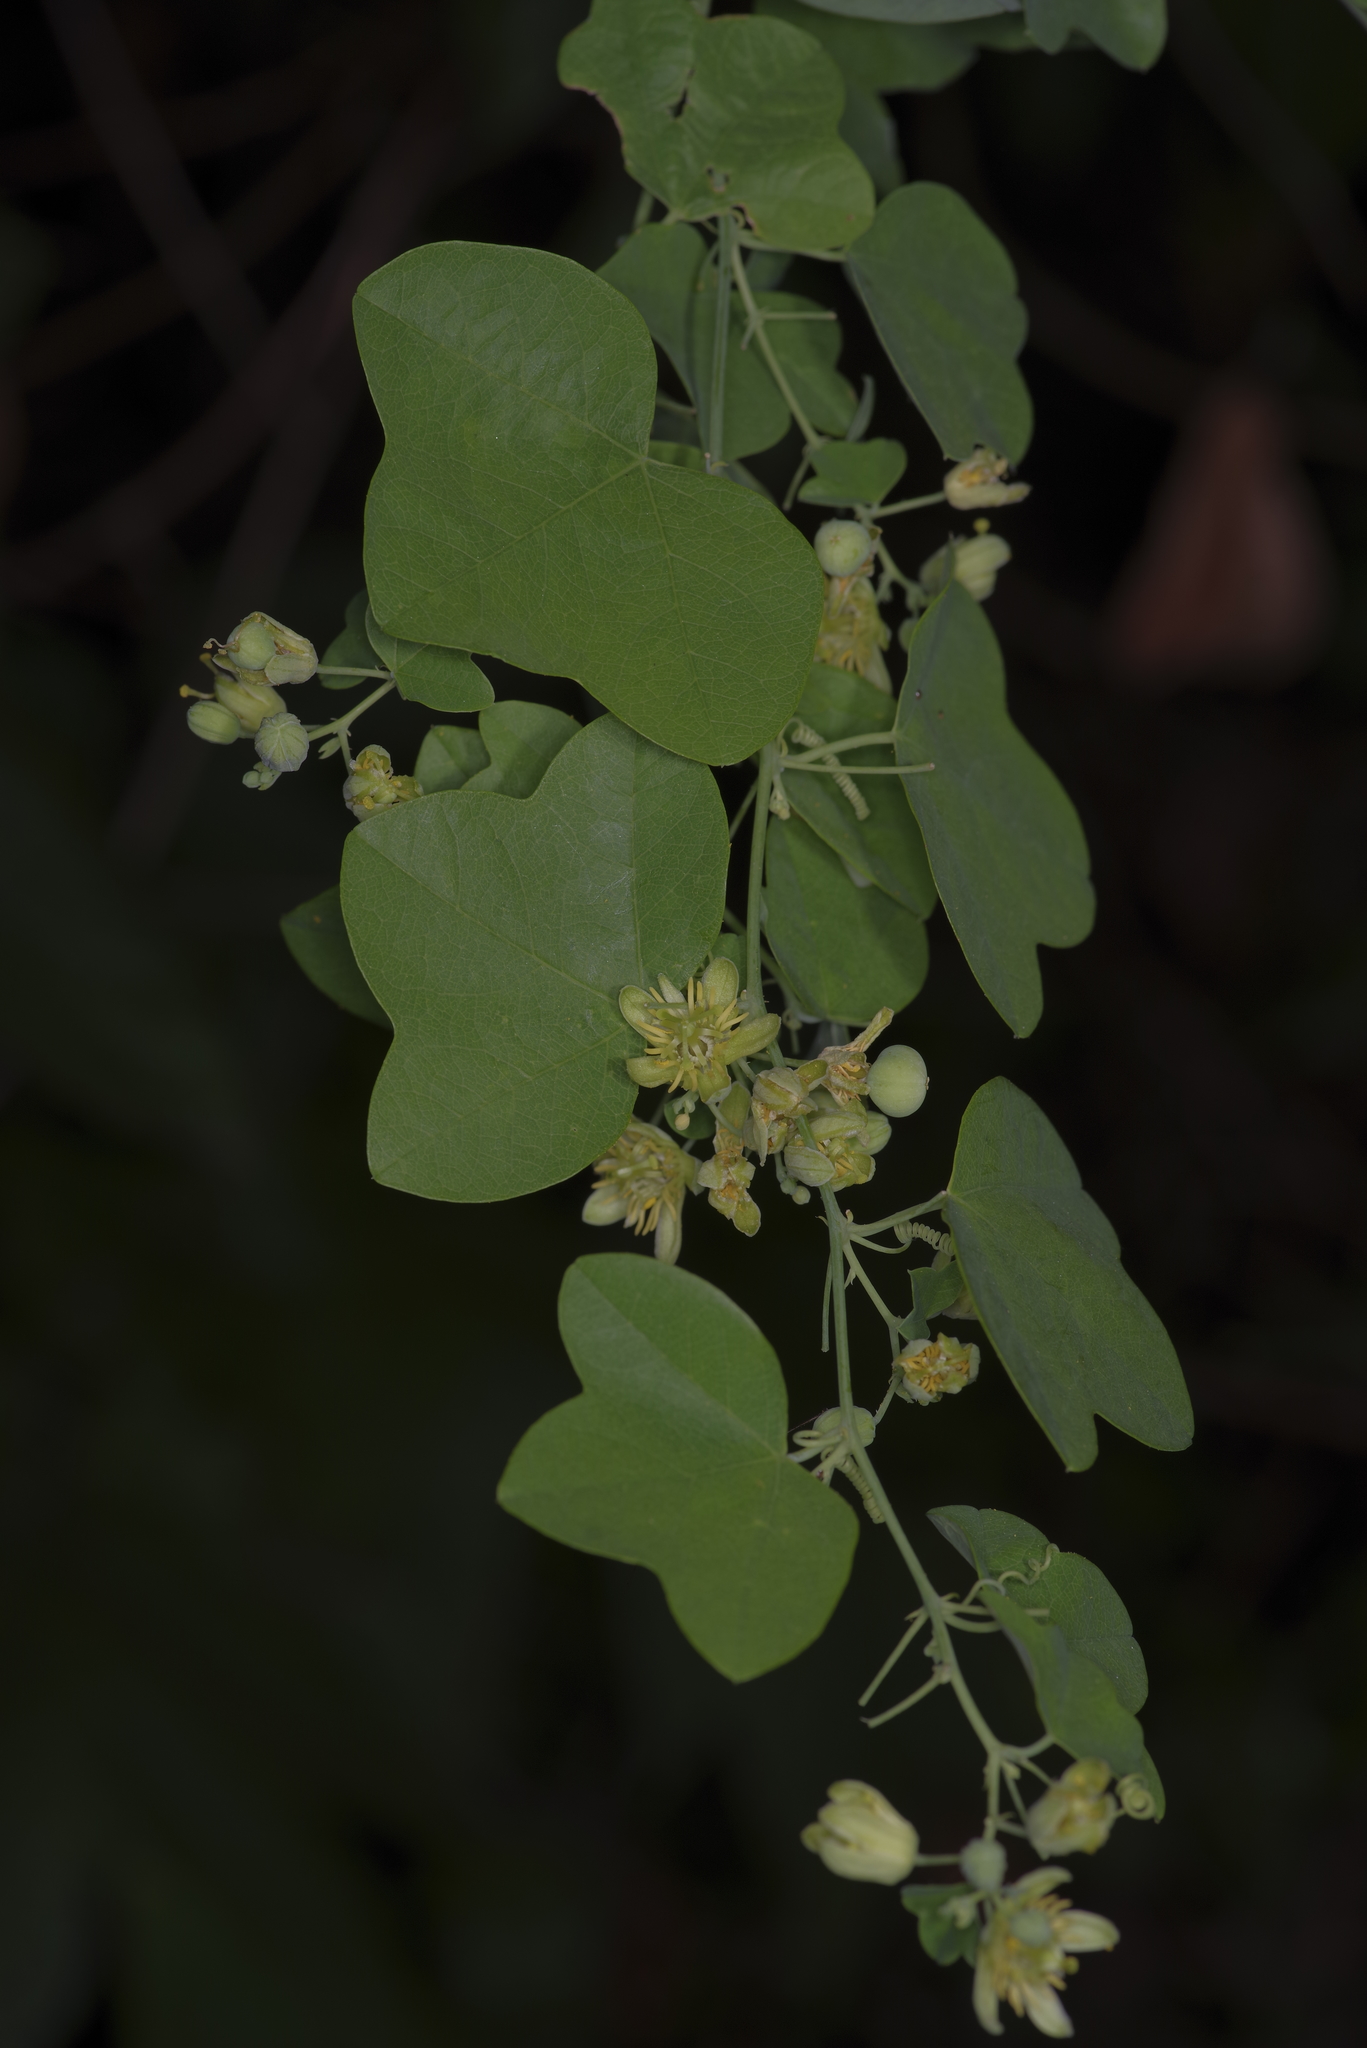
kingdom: Plantae
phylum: Tracheophyta
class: Magnoliopsida
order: Malpighiales
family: Passifloraceae
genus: Passiflora
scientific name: Passiflora lutea
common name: Yellow passionflower
